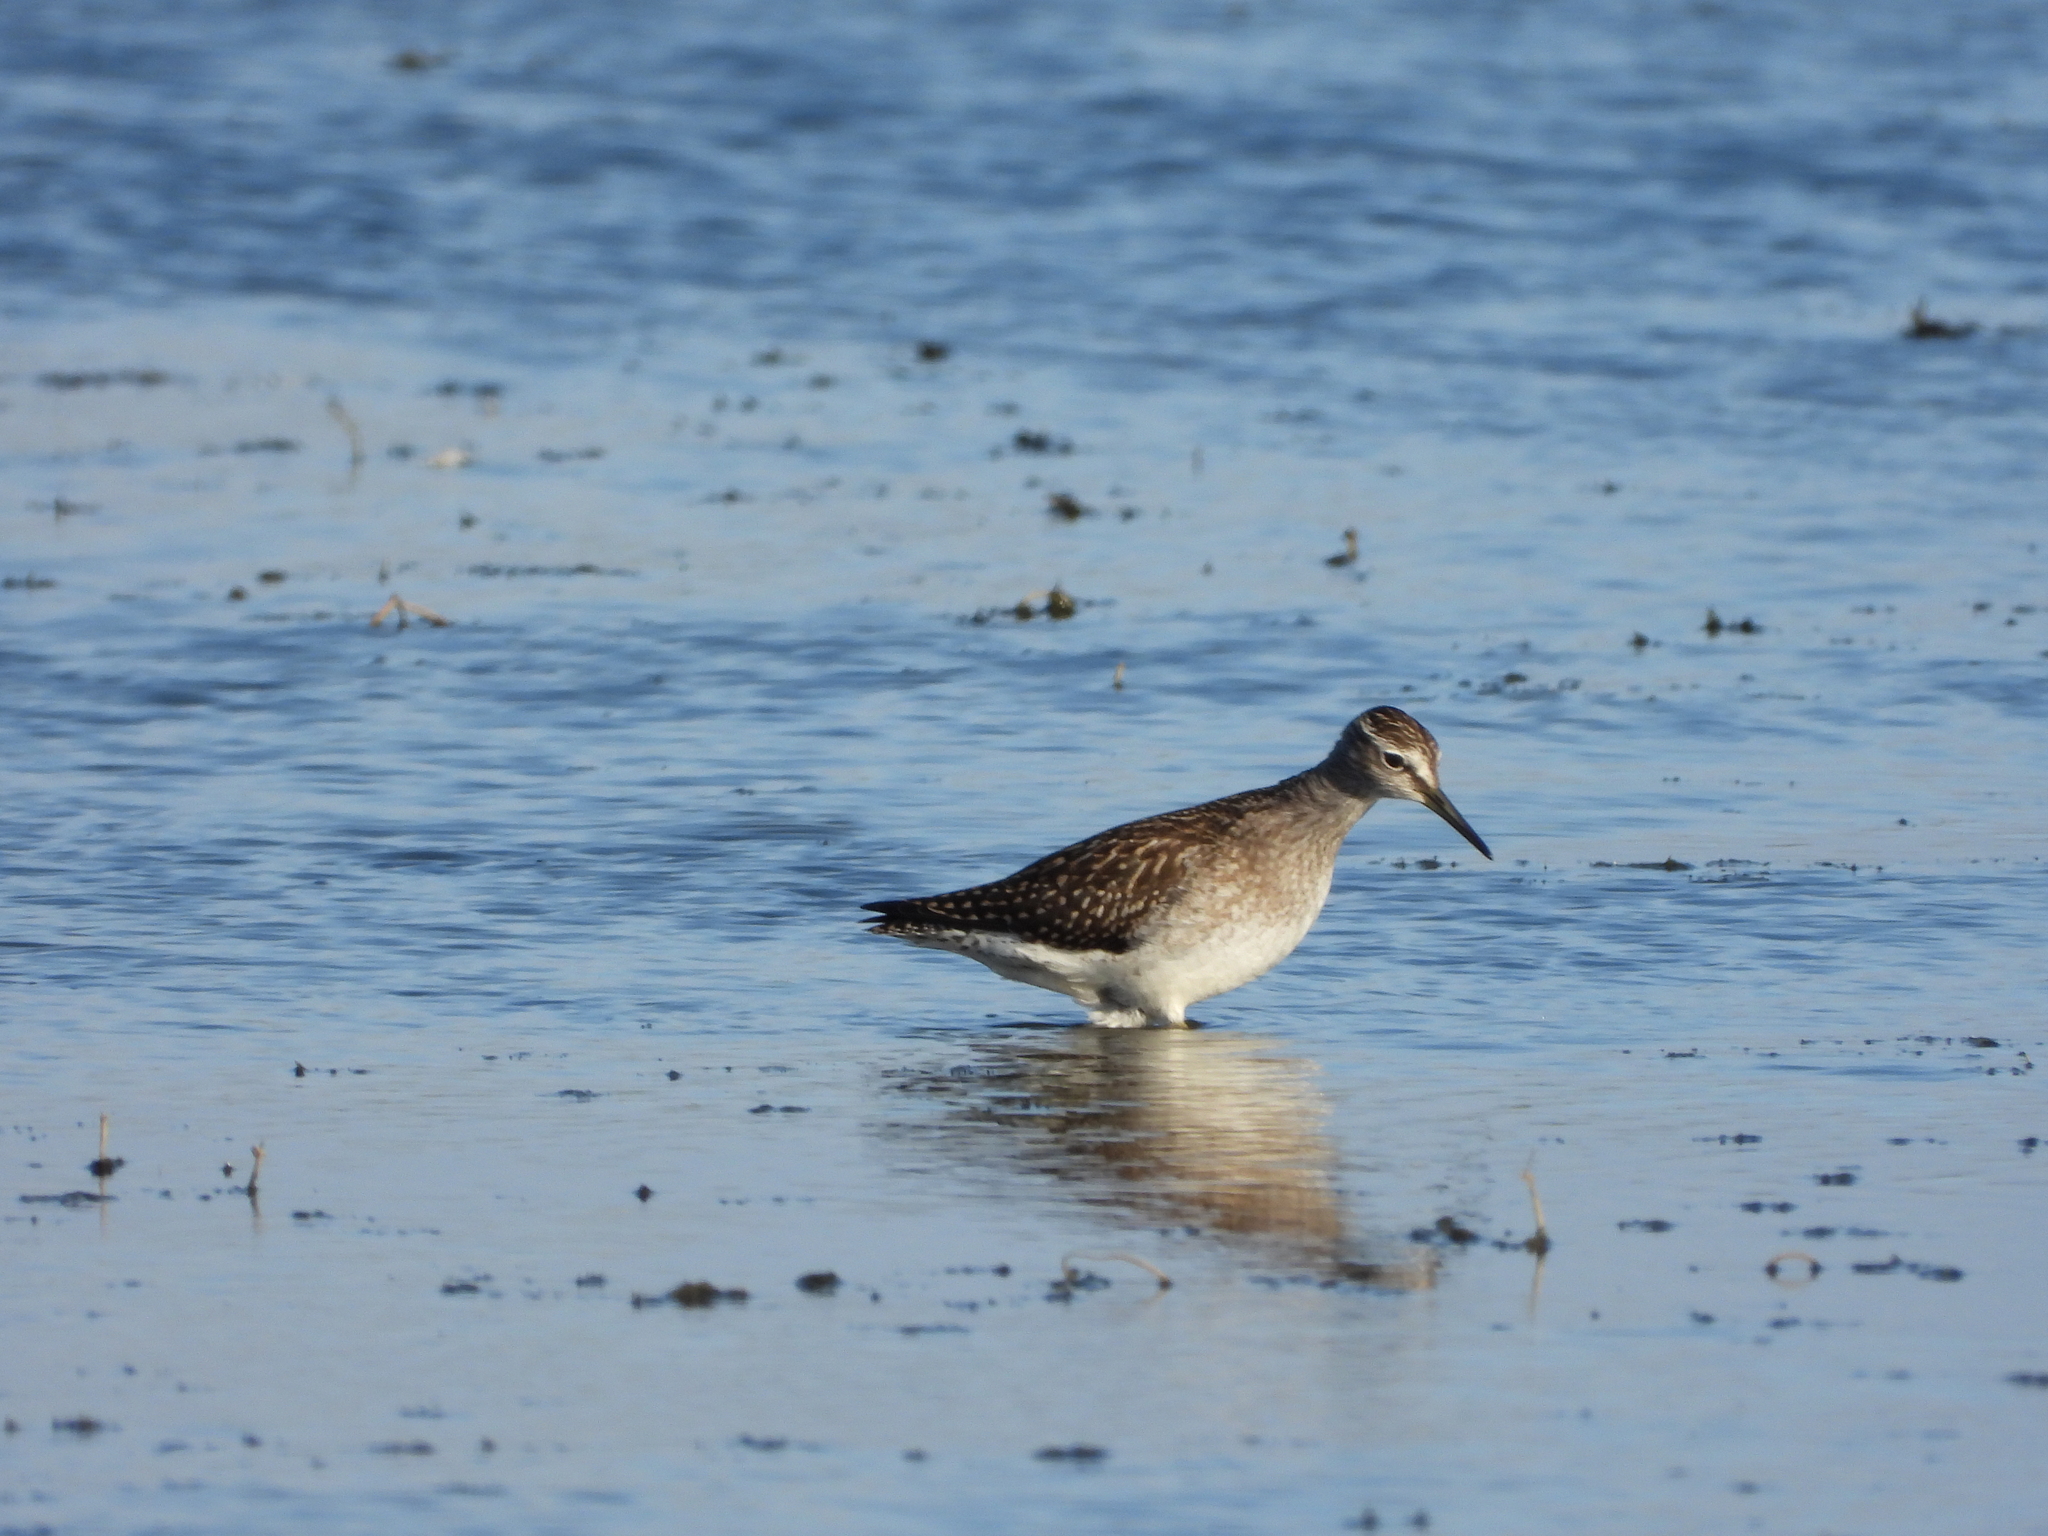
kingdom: Animalia
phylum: Chordata
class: Aves
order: Charadriiformes
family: Scolopacidae
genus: Tringa
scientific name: Tringa glareola
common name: Wood sandpiper
